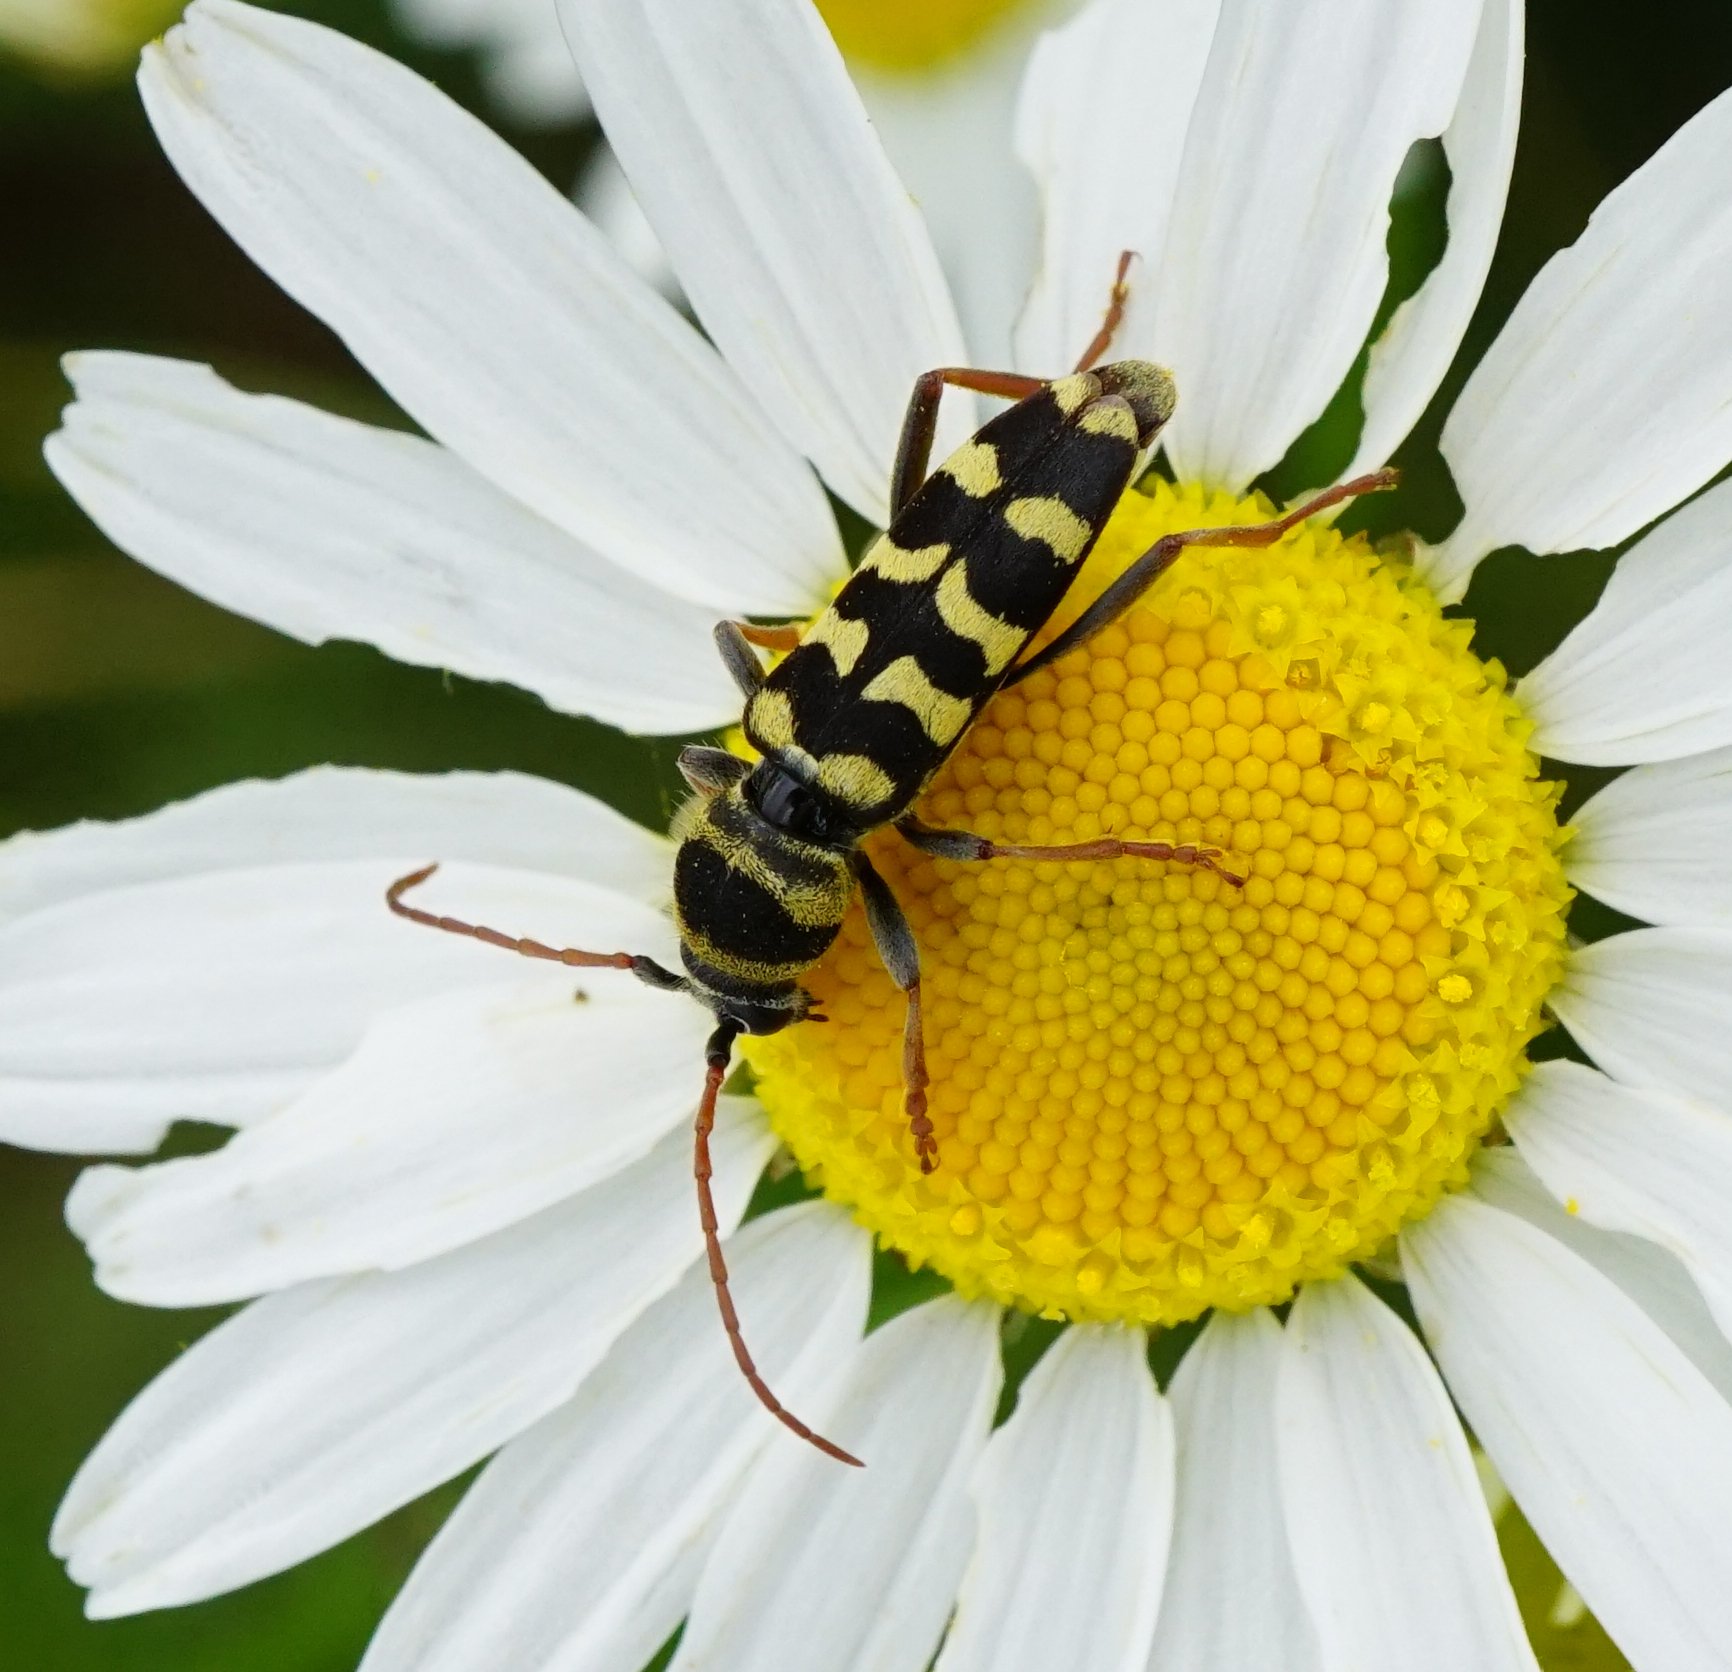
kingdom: Animalia
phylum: Arthropoda
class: Insecta
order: Coleoptera
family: Cerambycidae
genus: Plagionotus
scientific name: Plagionotus floralis
